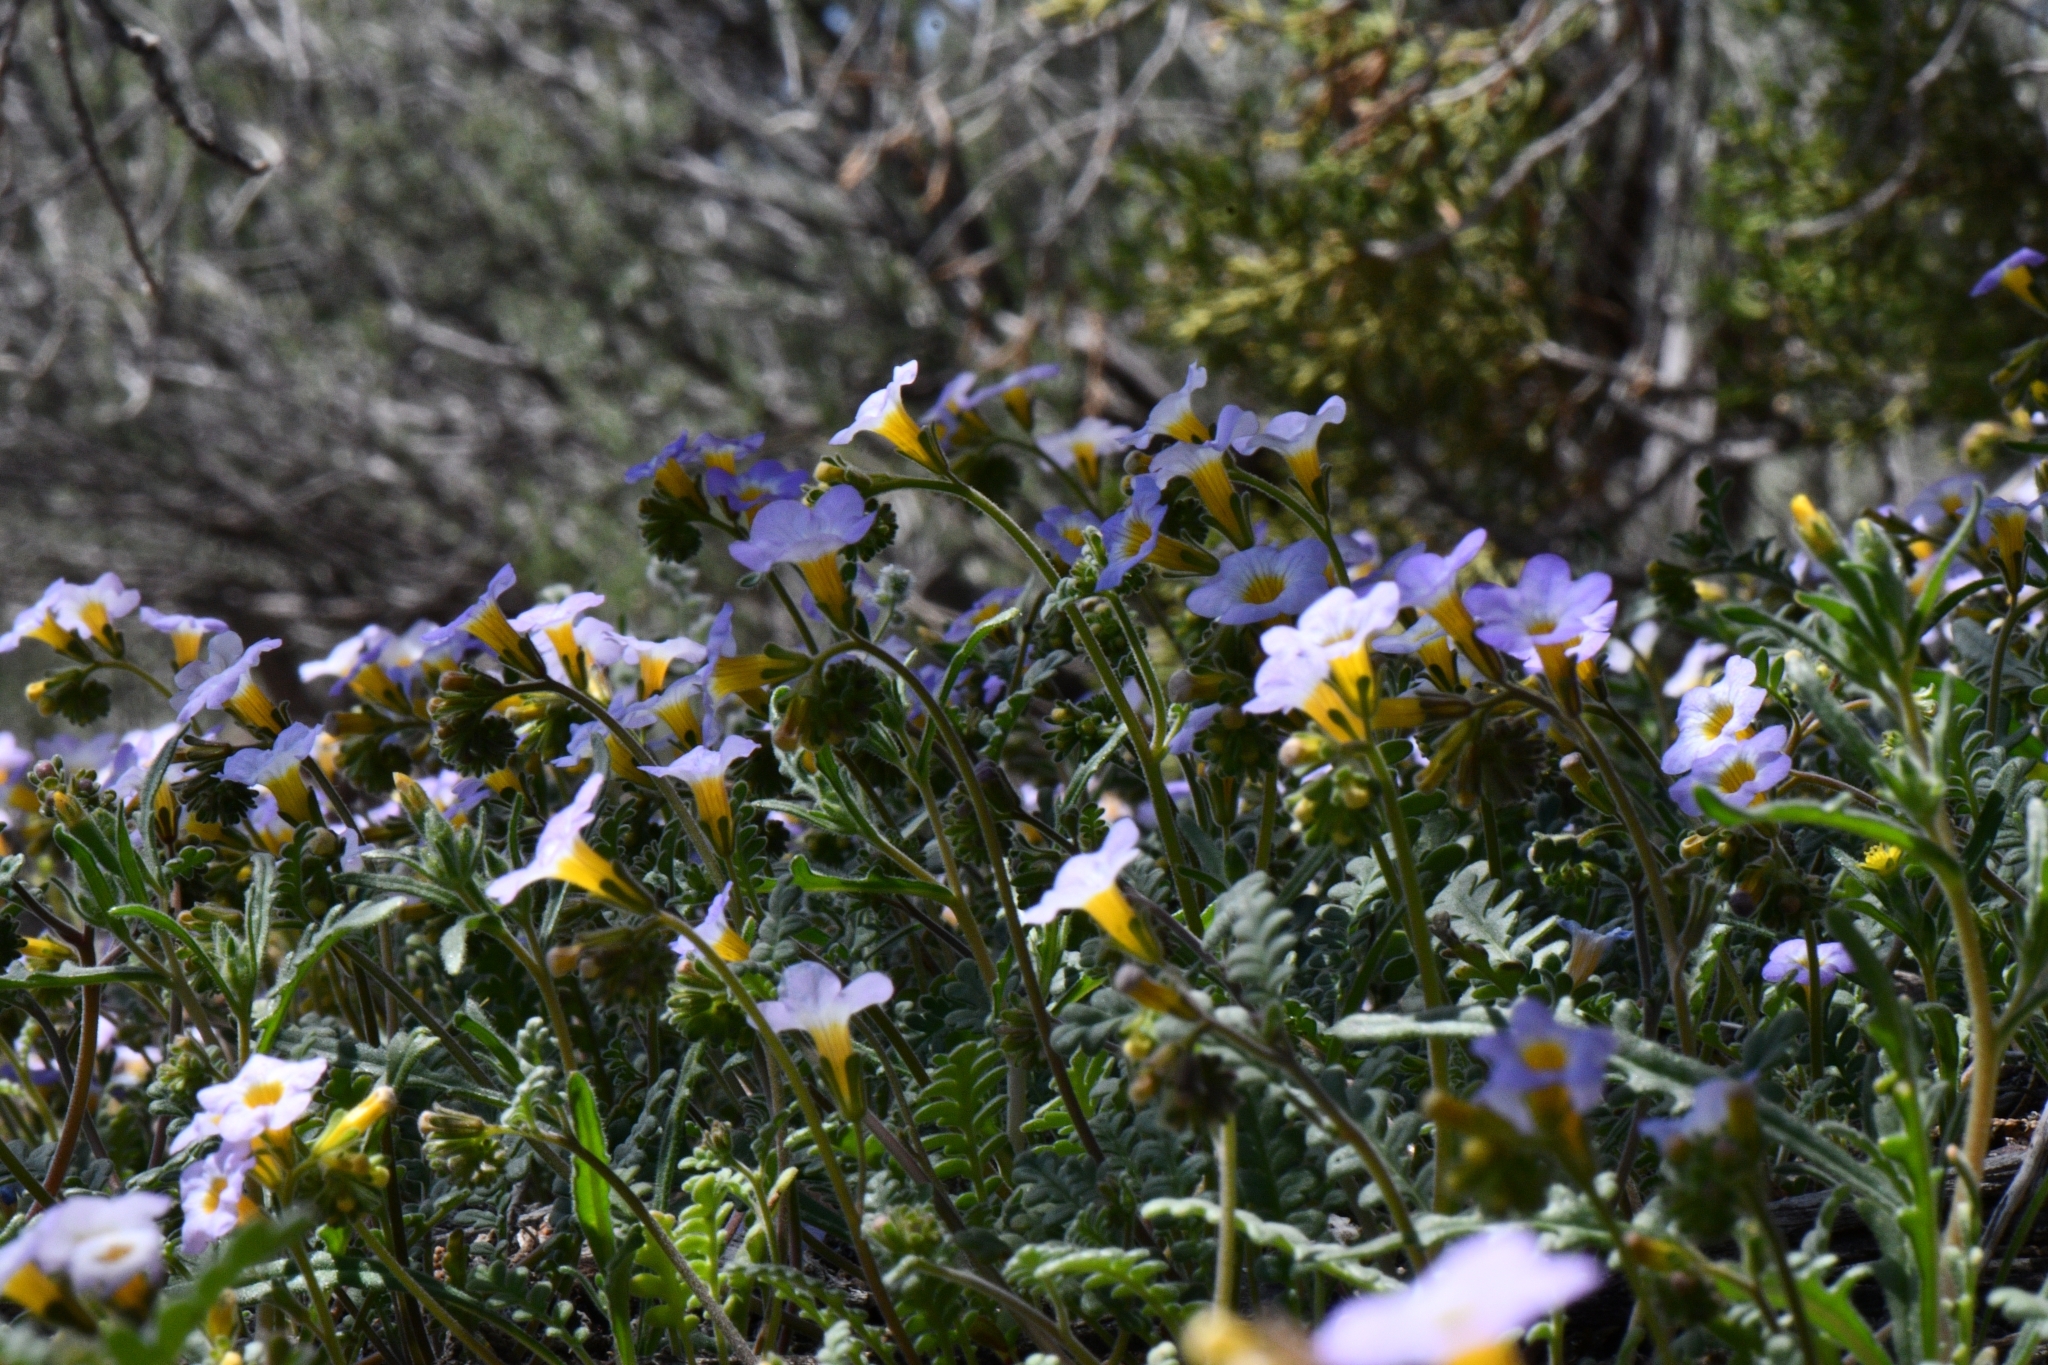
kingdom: Plantae
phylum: Tracheophyta
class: Magnoliopsida
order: Boraginales
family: Hydrophyllaceae
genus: Phacelia
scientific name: Phacelia fremontii
